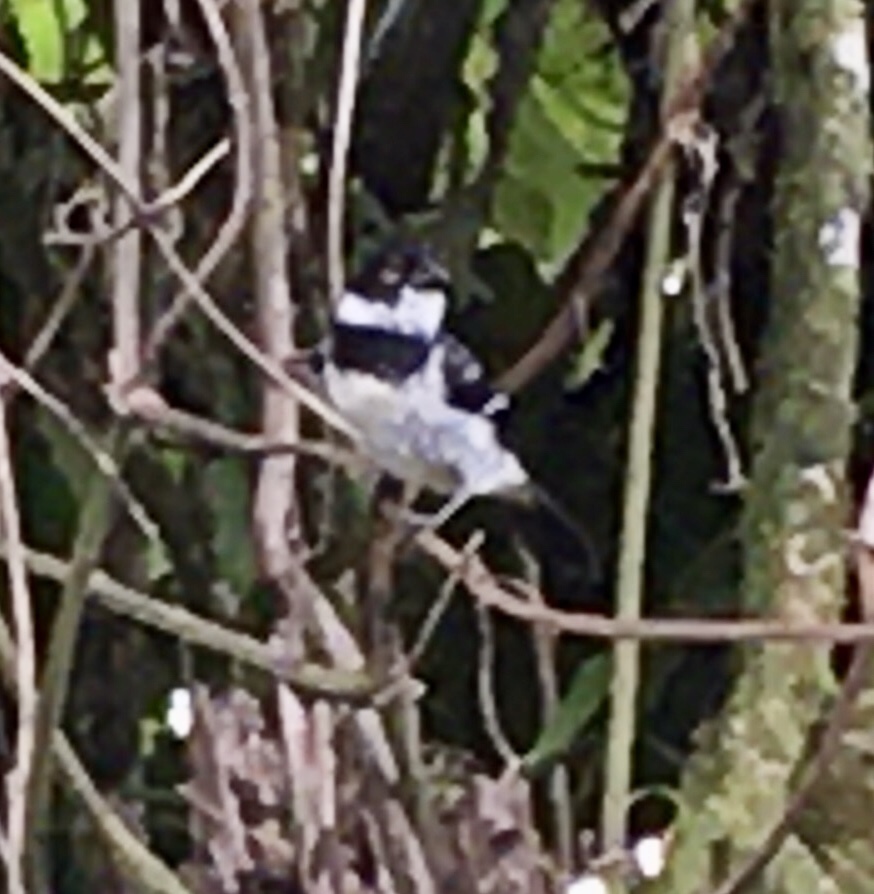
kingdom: Animalia
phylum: Chordata
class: Aves
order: Passeriformes
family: Thraupidae
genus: Sporophila
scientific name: Sporophila morelleti
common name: Morelet's seedeater
